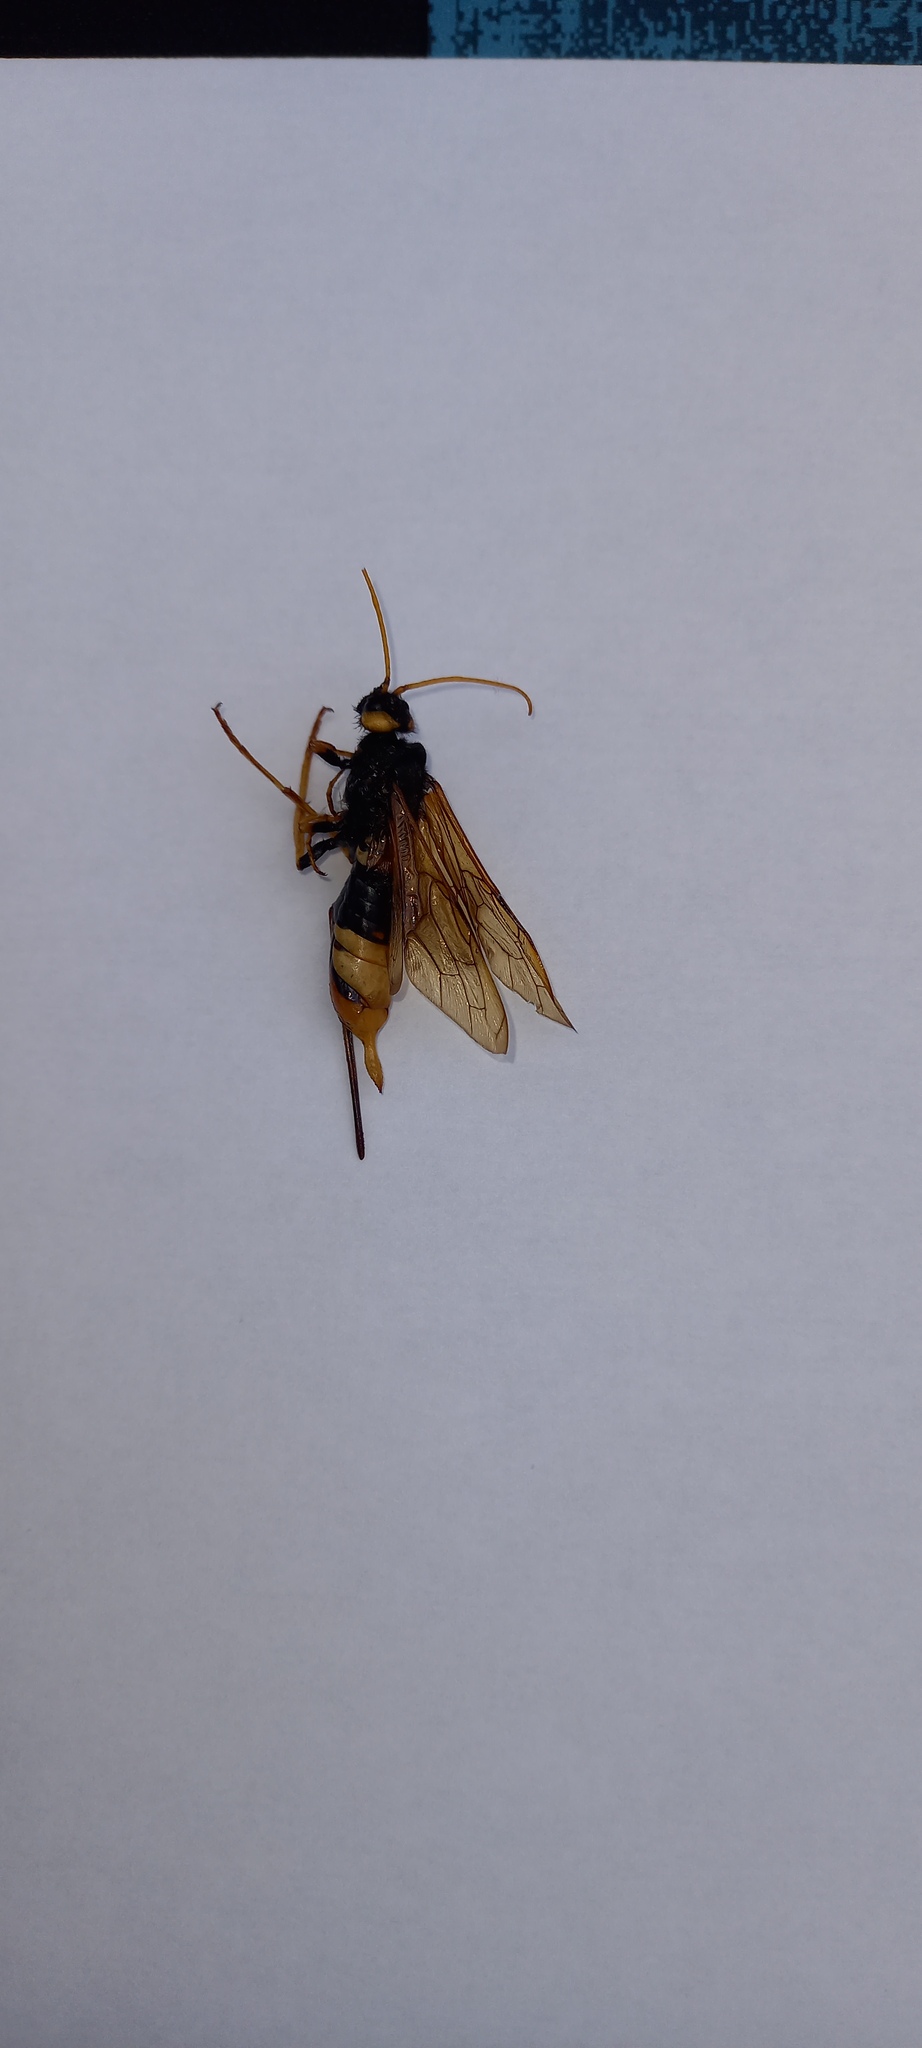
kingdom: Animalia
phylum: Arthropoda
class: Insecta
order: Hymenoptera
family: Siricidae
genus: Urocerus
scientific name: Urocerus gigas
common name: Giant woodwasp
